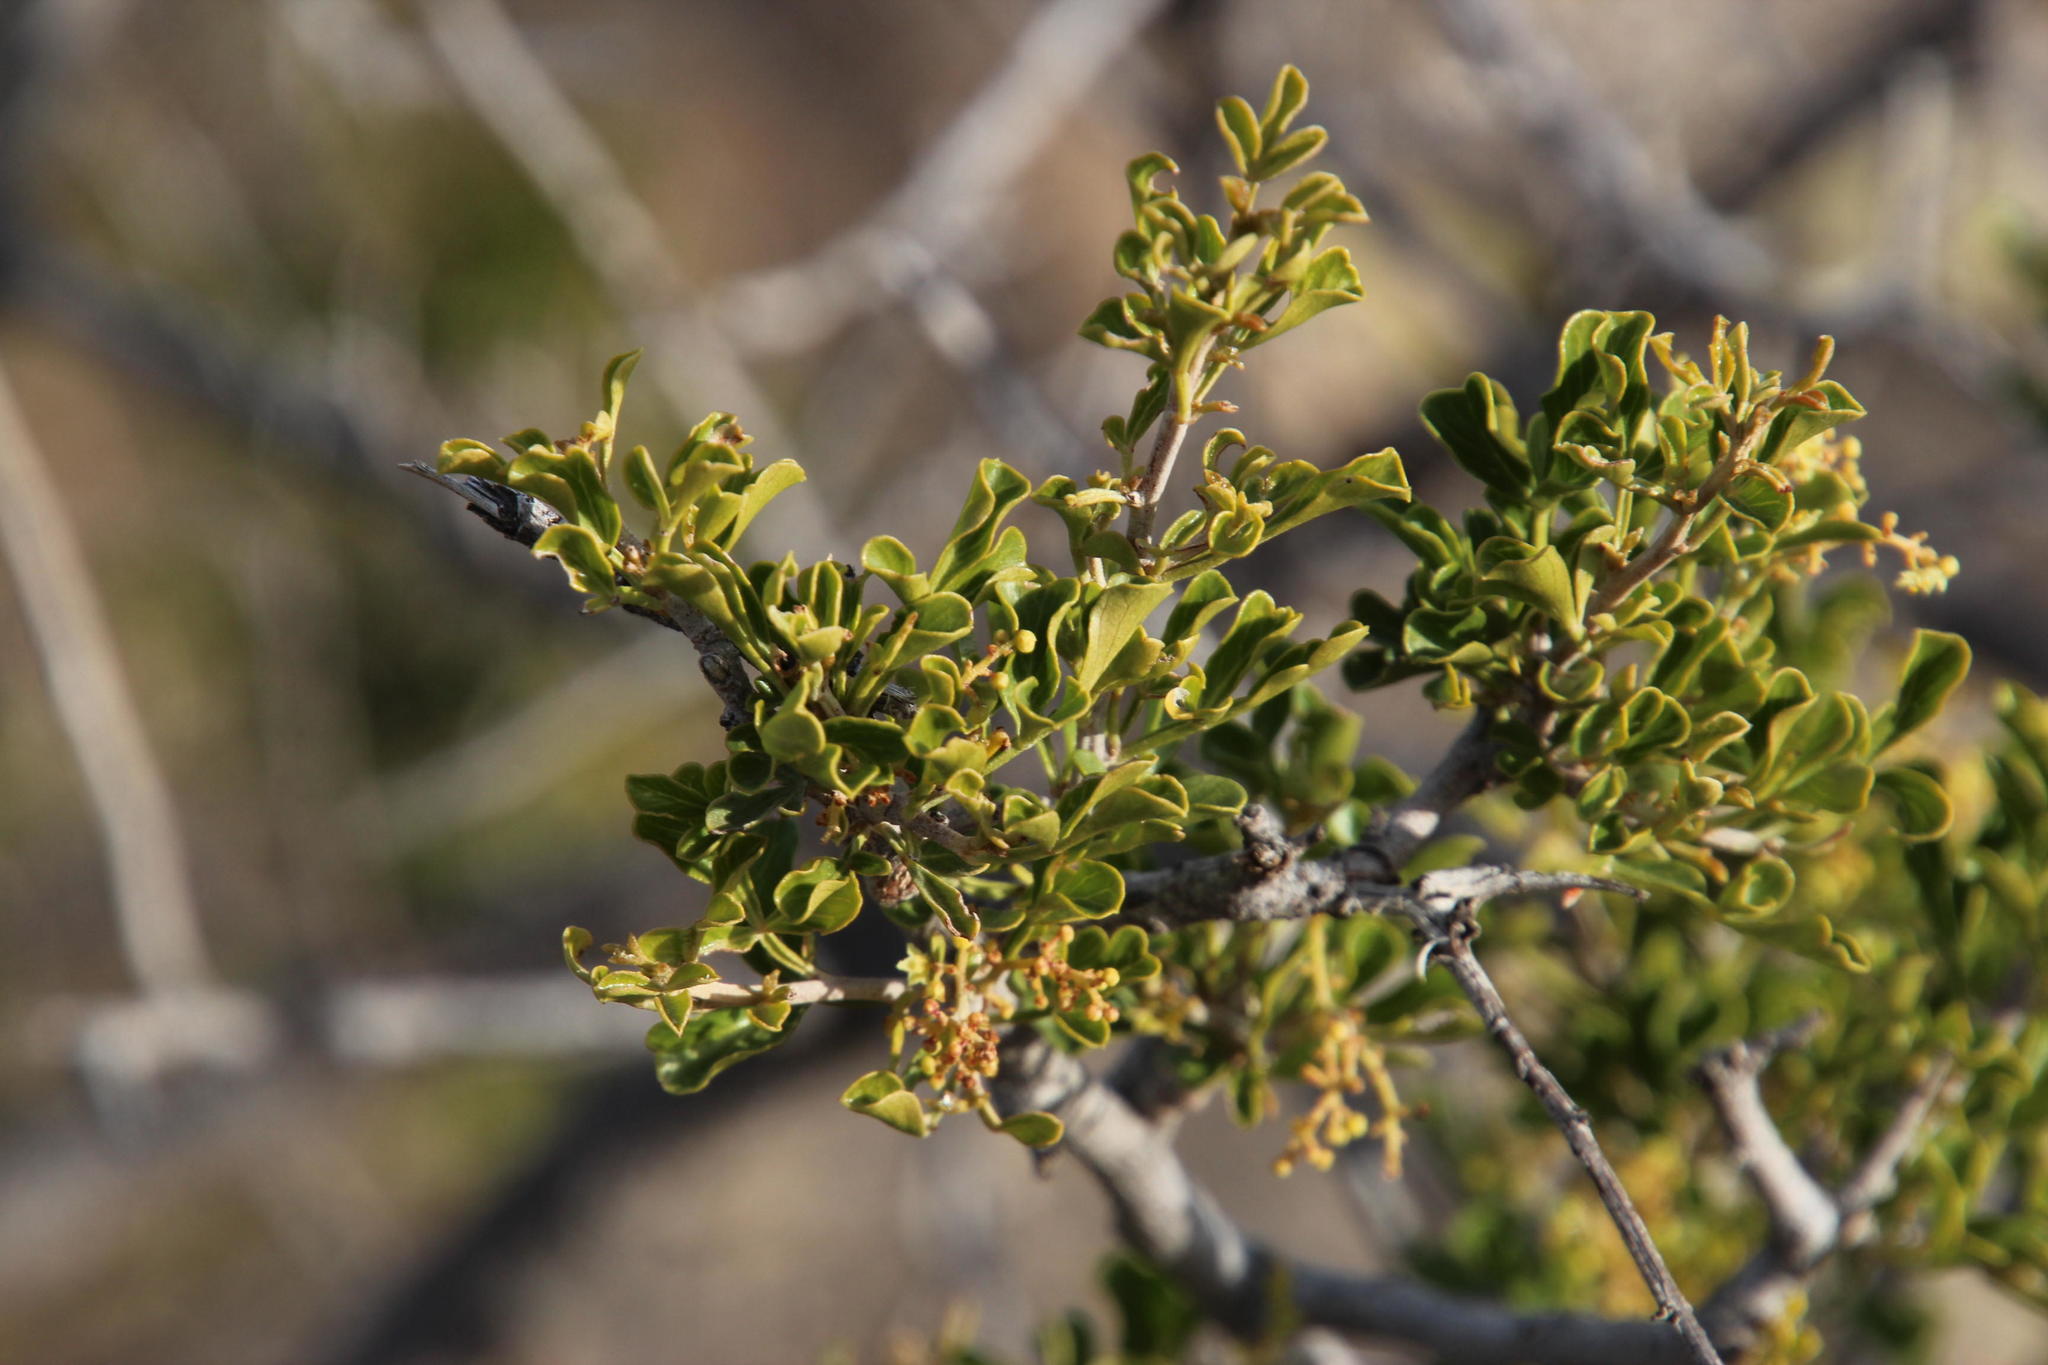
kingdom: Plantae
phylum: Tracheophyta
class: Magnoliopsida
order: Sapindales
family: Anacardiaceae
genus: Searsia
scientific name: Searsia burchellii
